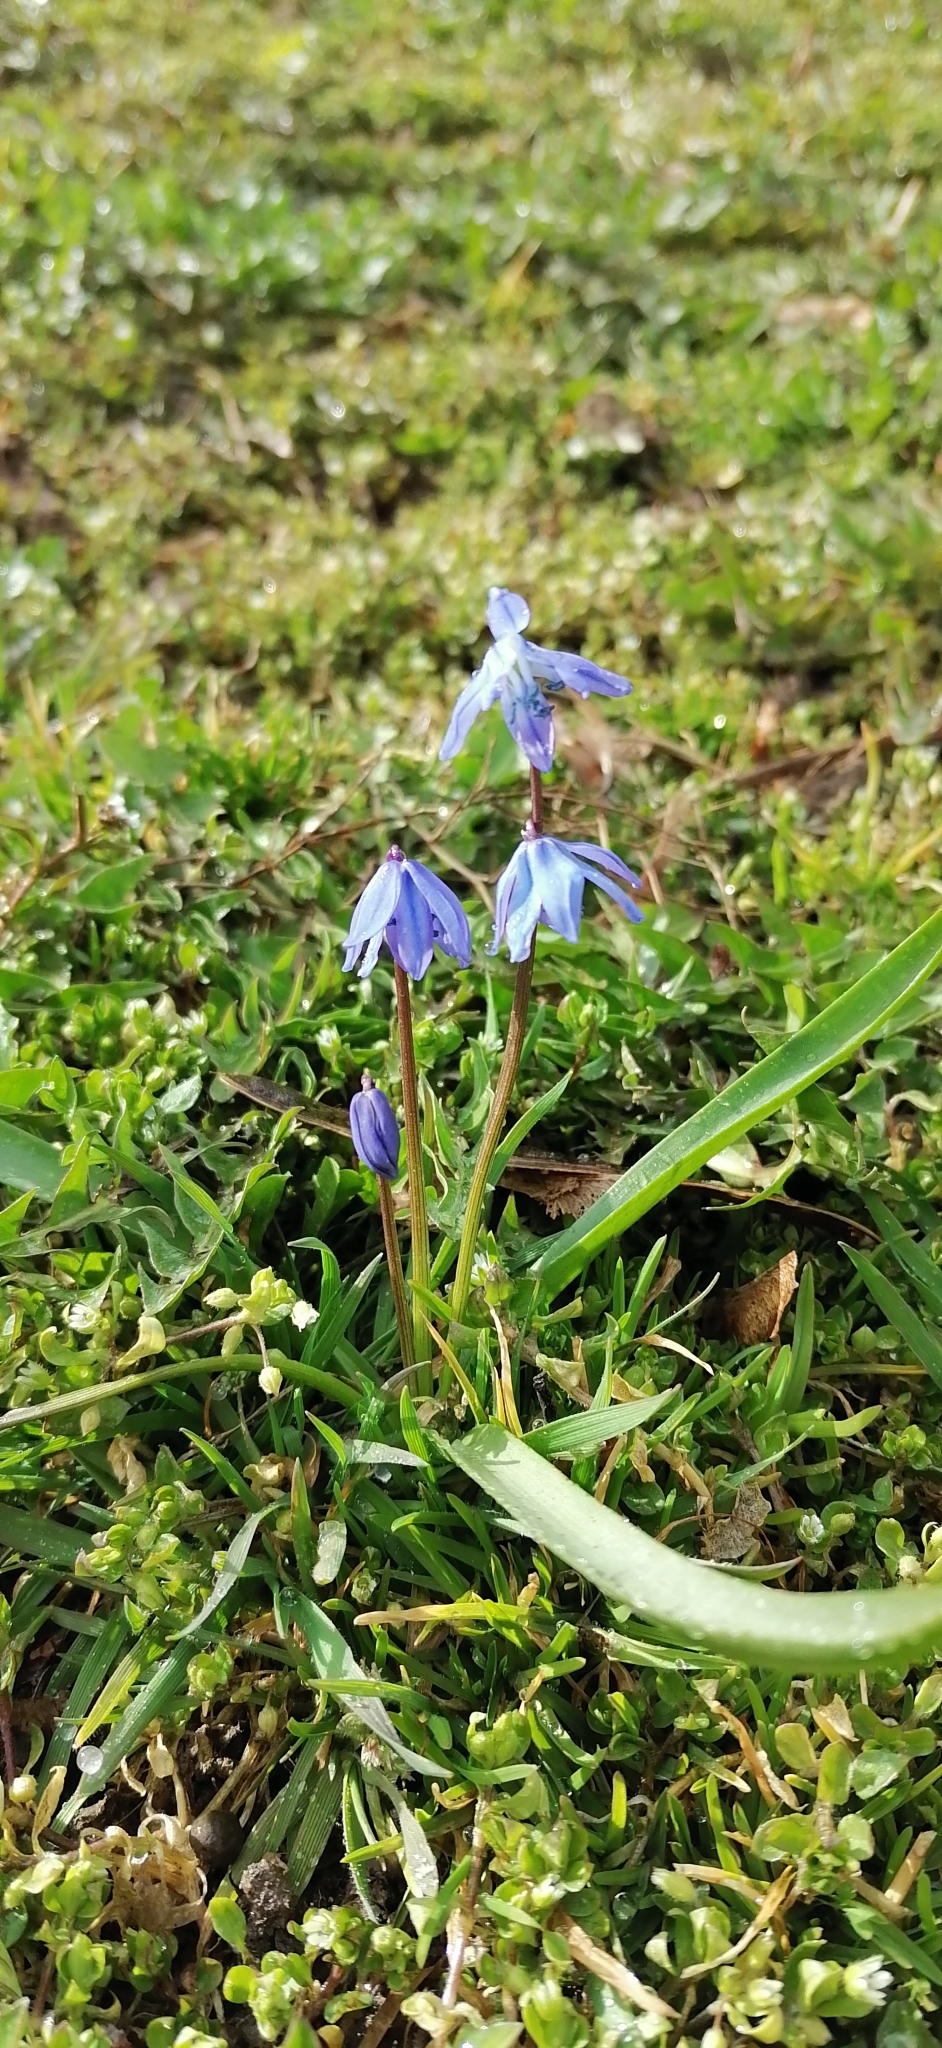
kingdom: Plantae
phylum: Tracheophyta
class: Liliopsida
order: Asparagales
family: Asparagaceae
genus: Scilla
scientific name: Scilla siberica
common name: Siberian squill
